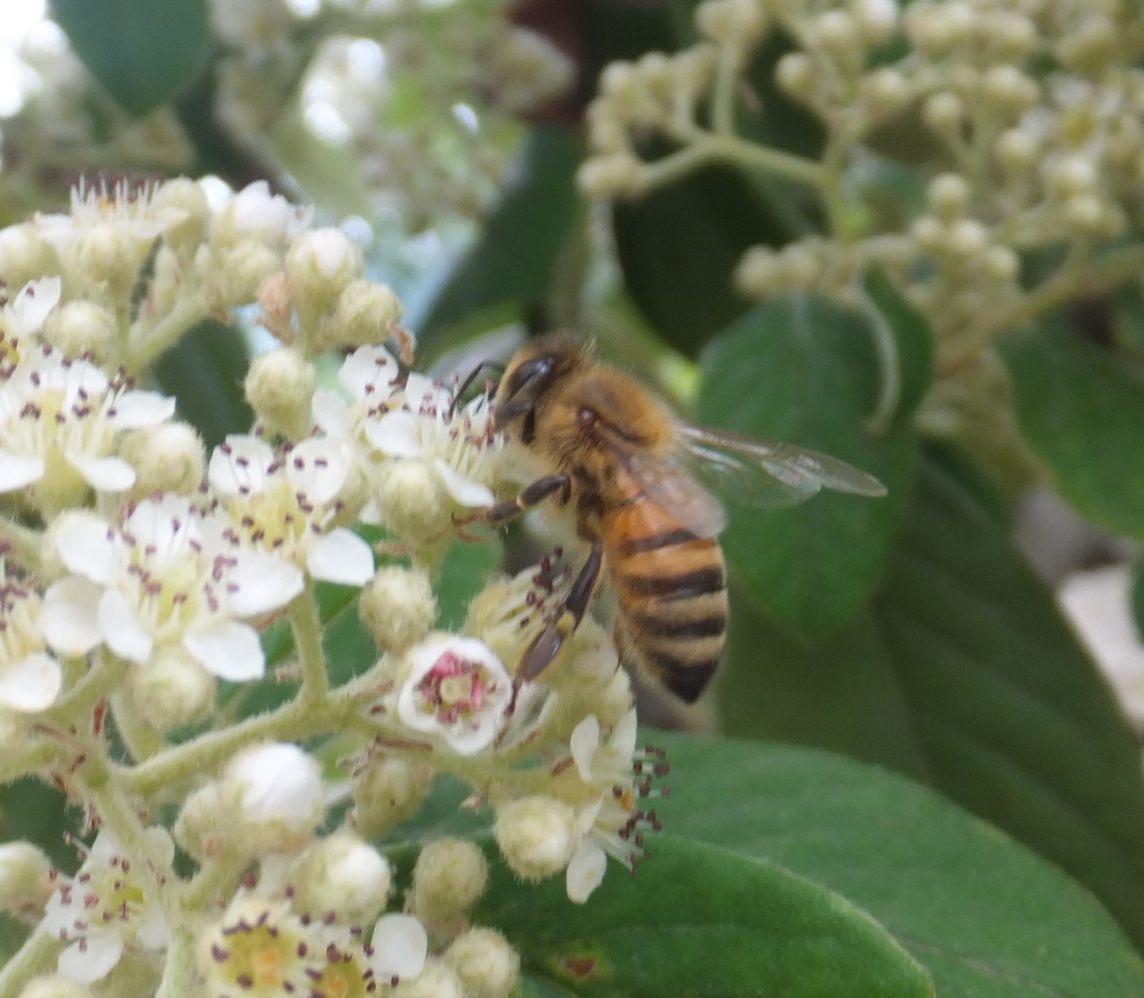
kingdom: Animalia
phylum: Arthropoda
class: Insecta
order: Hymenoptera
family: Apidae
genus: Apis
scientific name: Apis mellifera
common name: Honey bee
